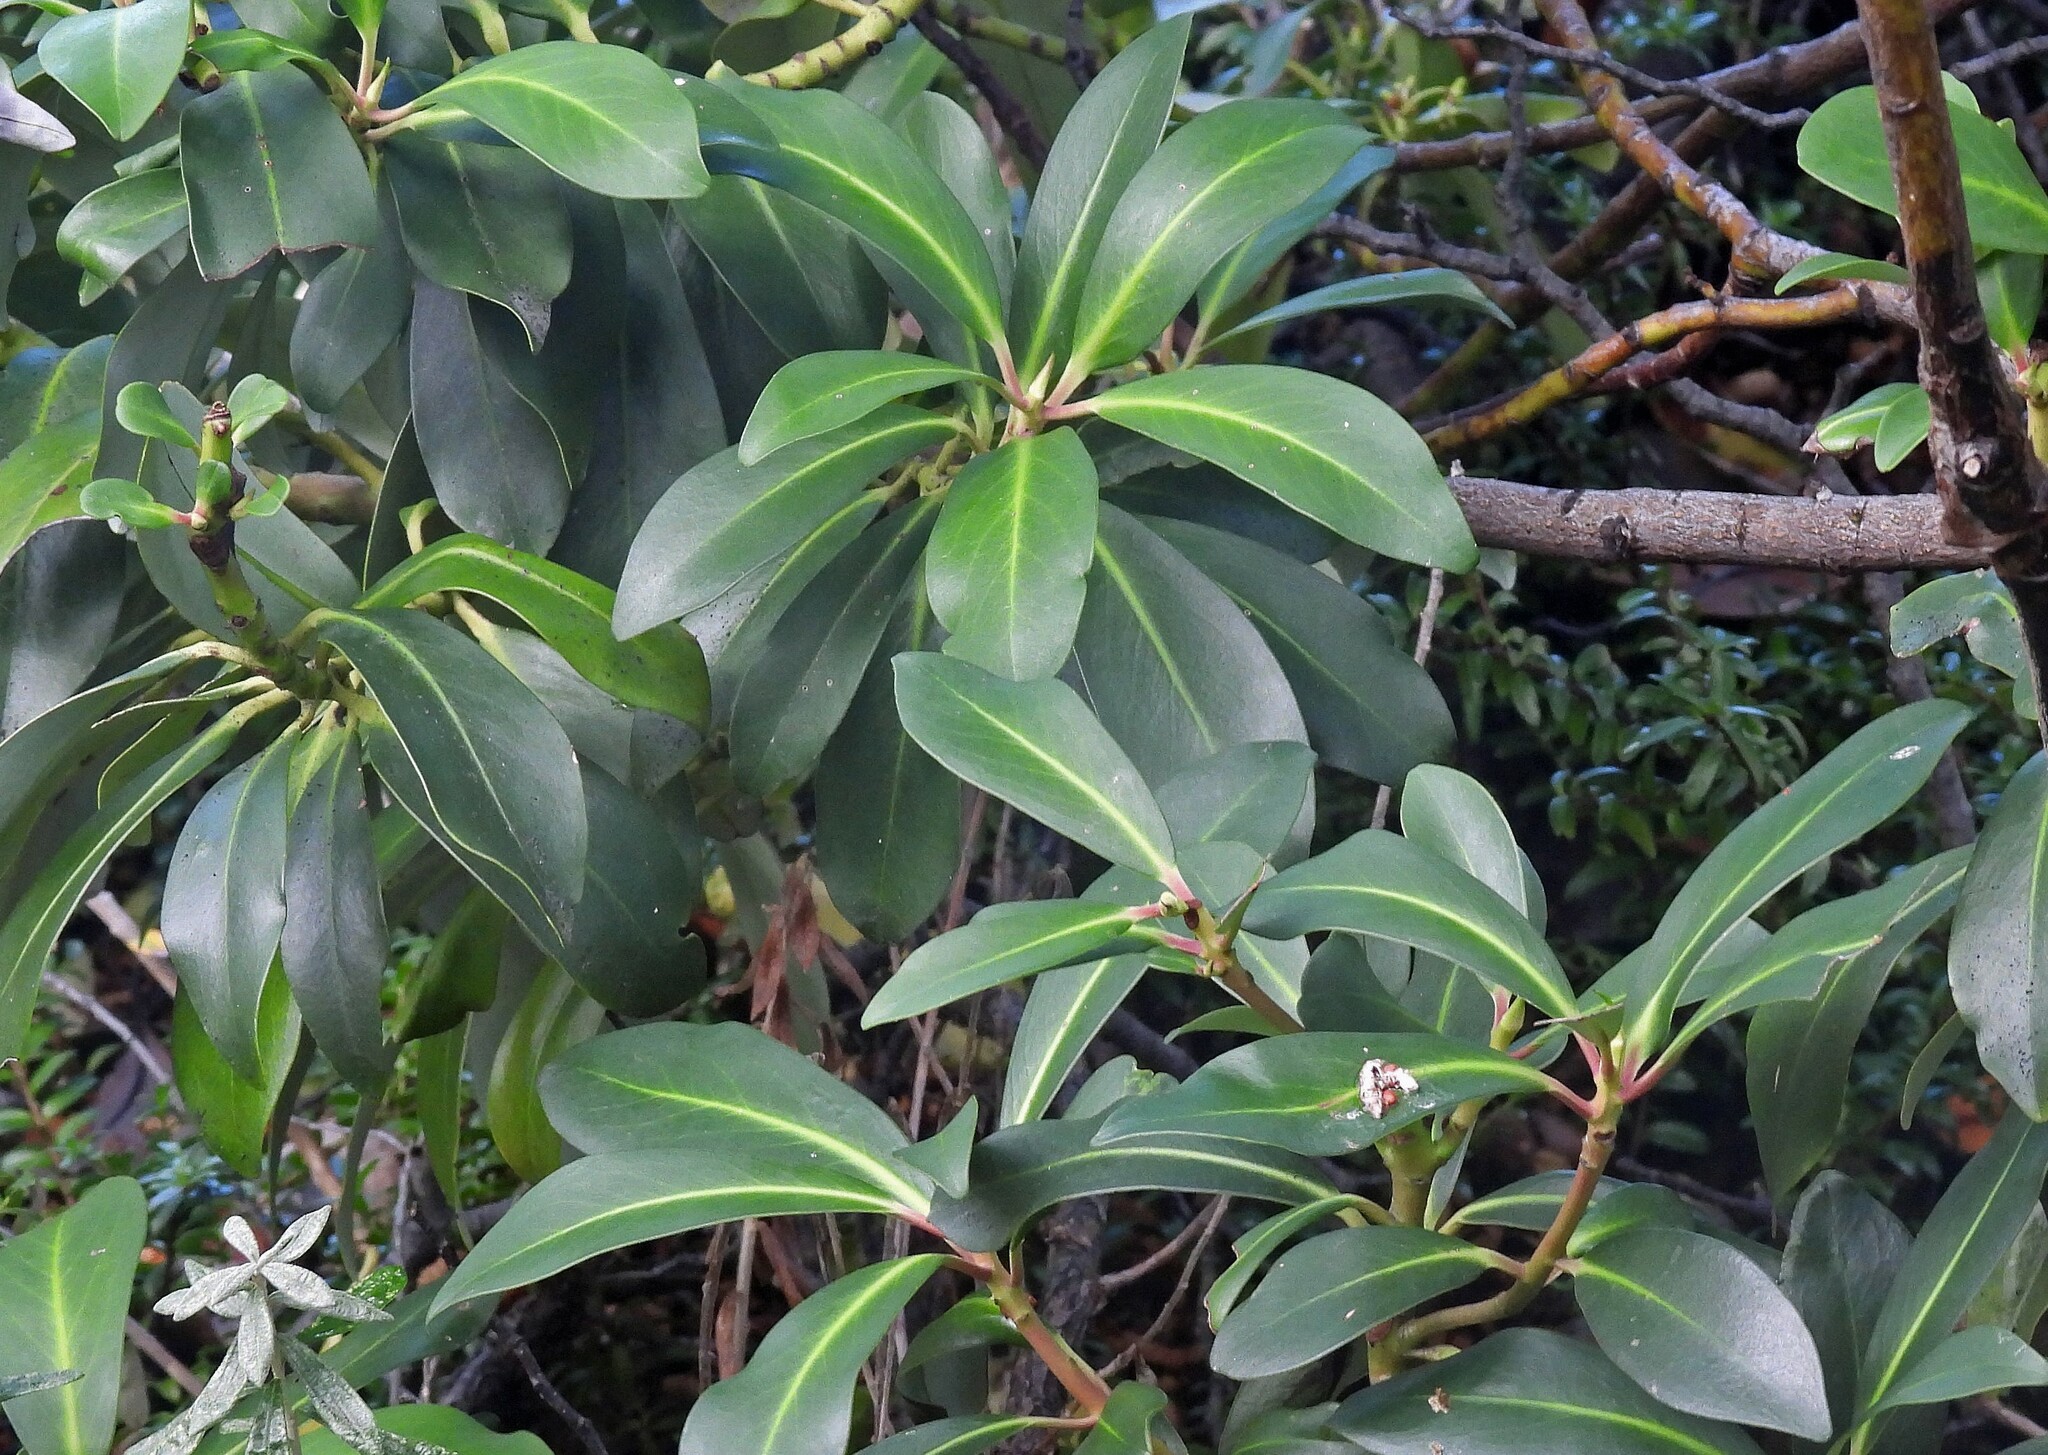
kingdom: Plantae
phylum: Tracheophyta
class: Magnoliopsida
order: Canellales
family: Winteraceae
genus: Drimys
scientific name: Drimys winteri
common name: Winter's-bark
